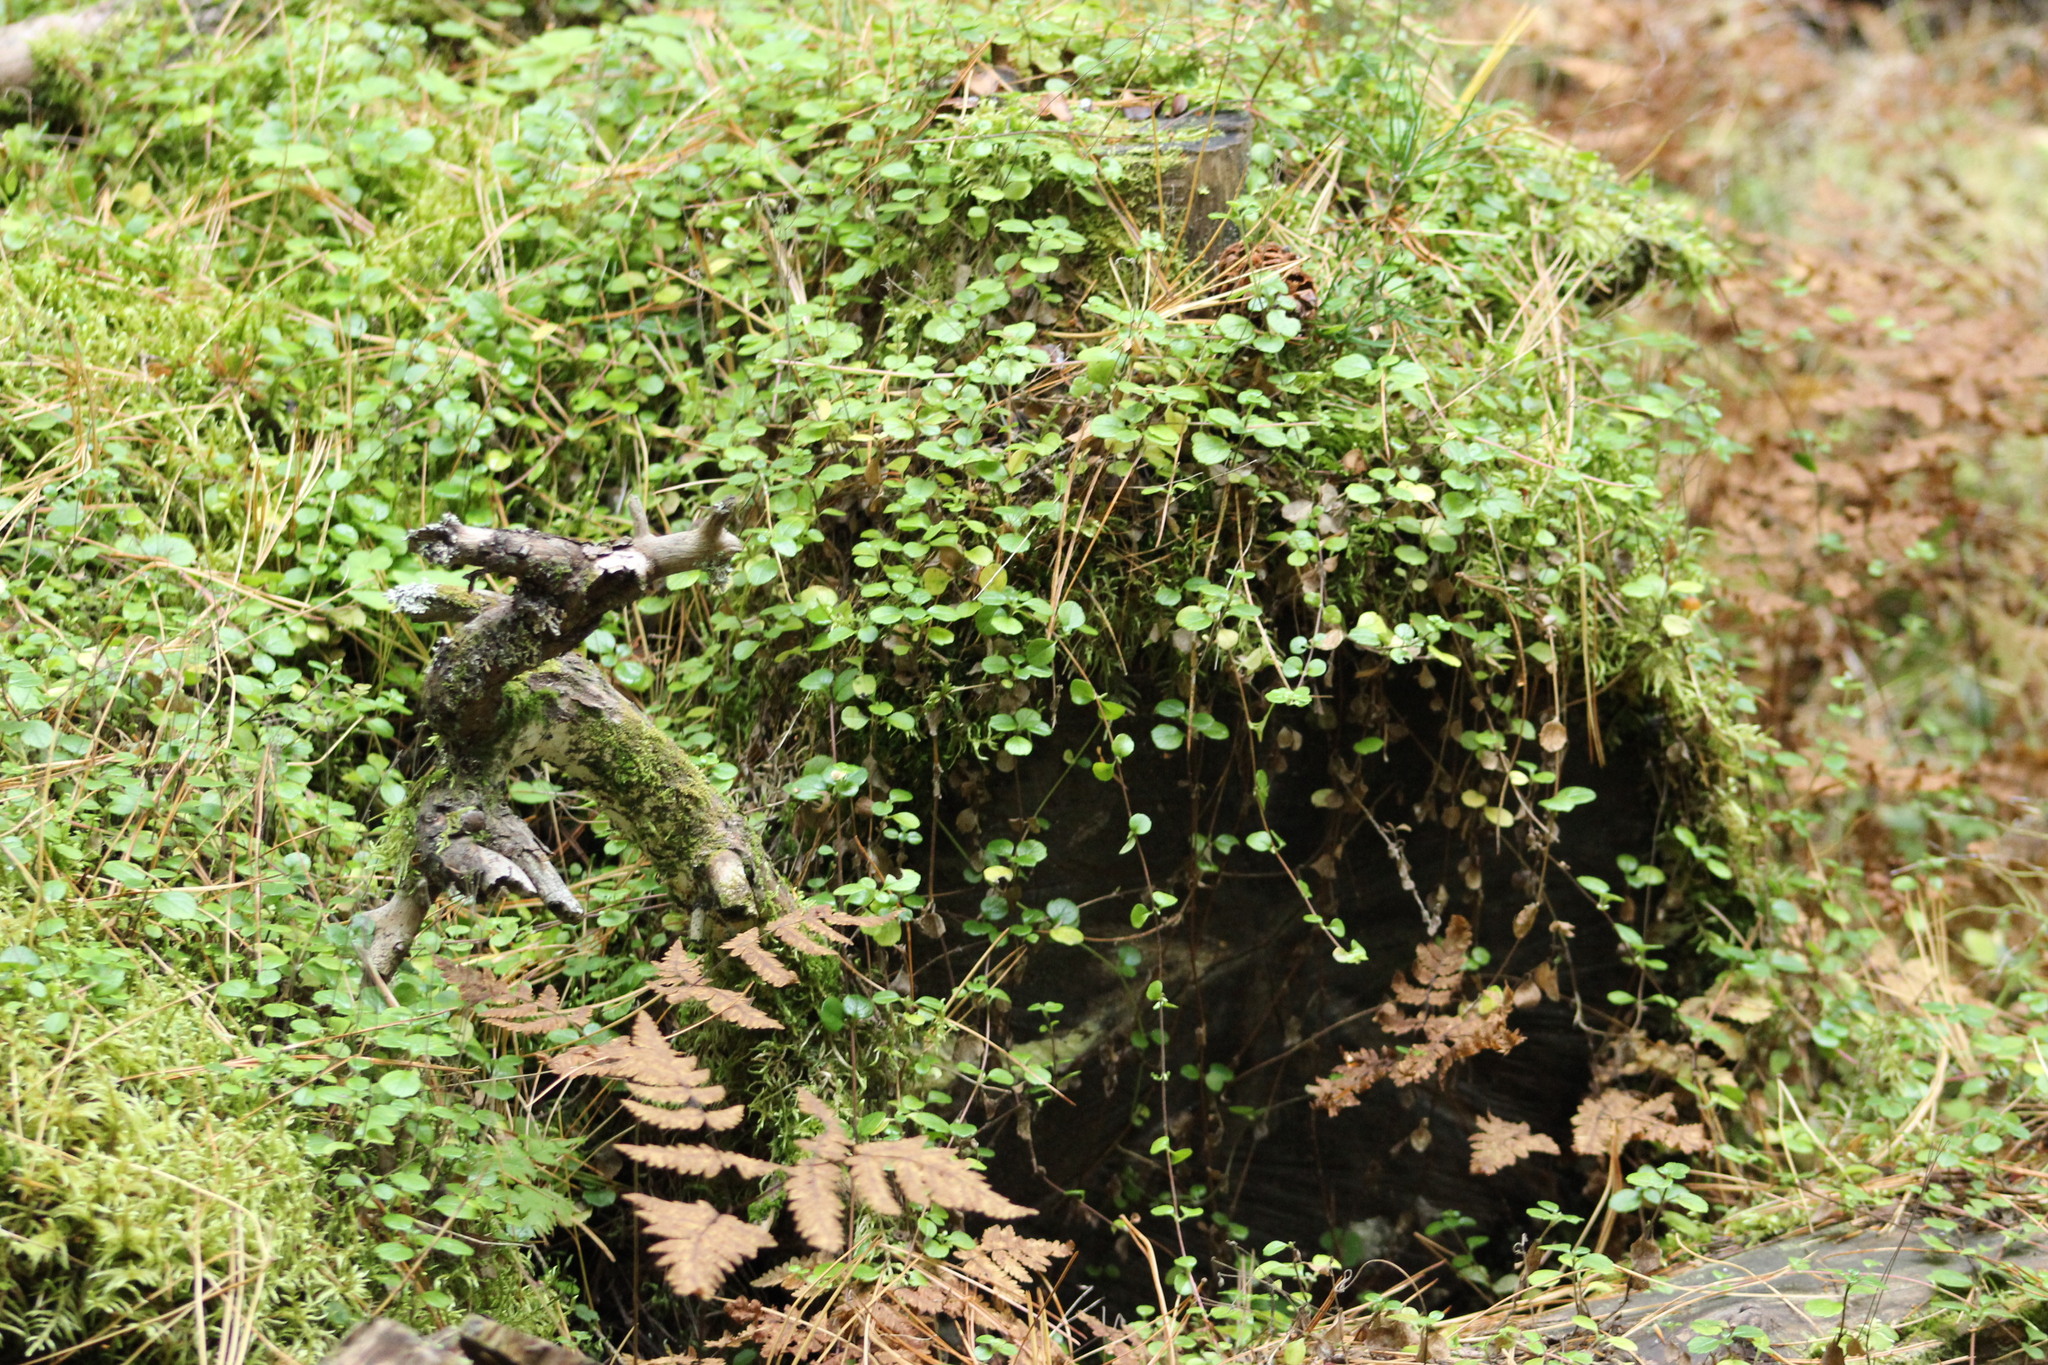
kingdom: Plantae
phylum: Tracheophyta
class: Magnoliopsida
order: Dipsacales
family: Caprifoliaceae
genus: Linnaea
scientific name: Linnaea borealis
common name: Twinflower
